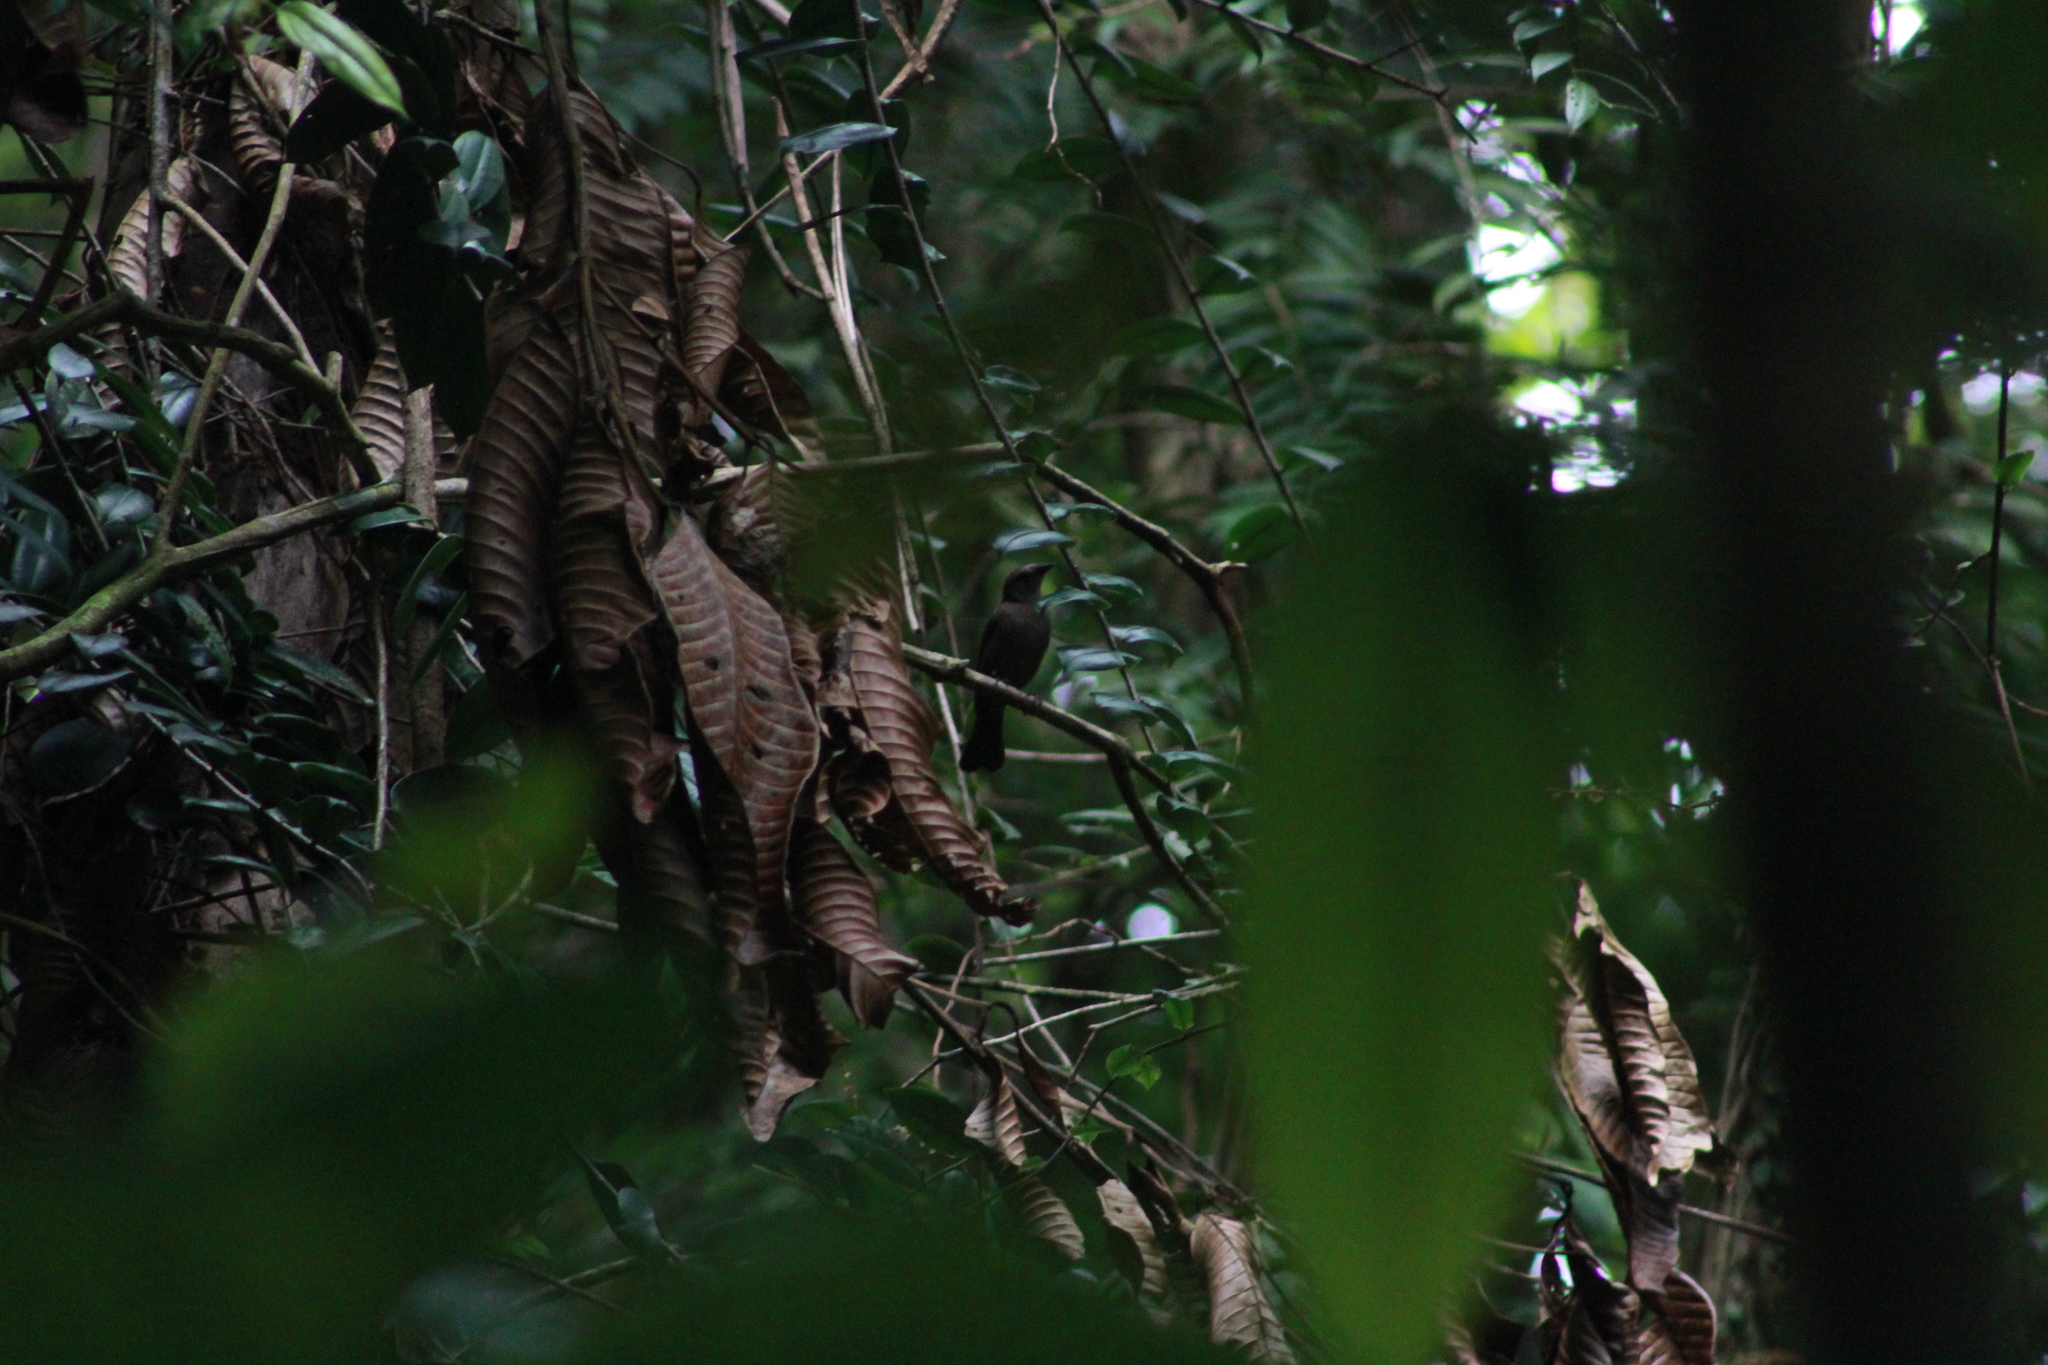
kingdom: Animalia
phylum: Chordata
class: Aves
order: Passeriformes
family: Icteridae
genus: Molothrus
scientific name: Molothrus bonariensis
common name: Shiny cowbird
